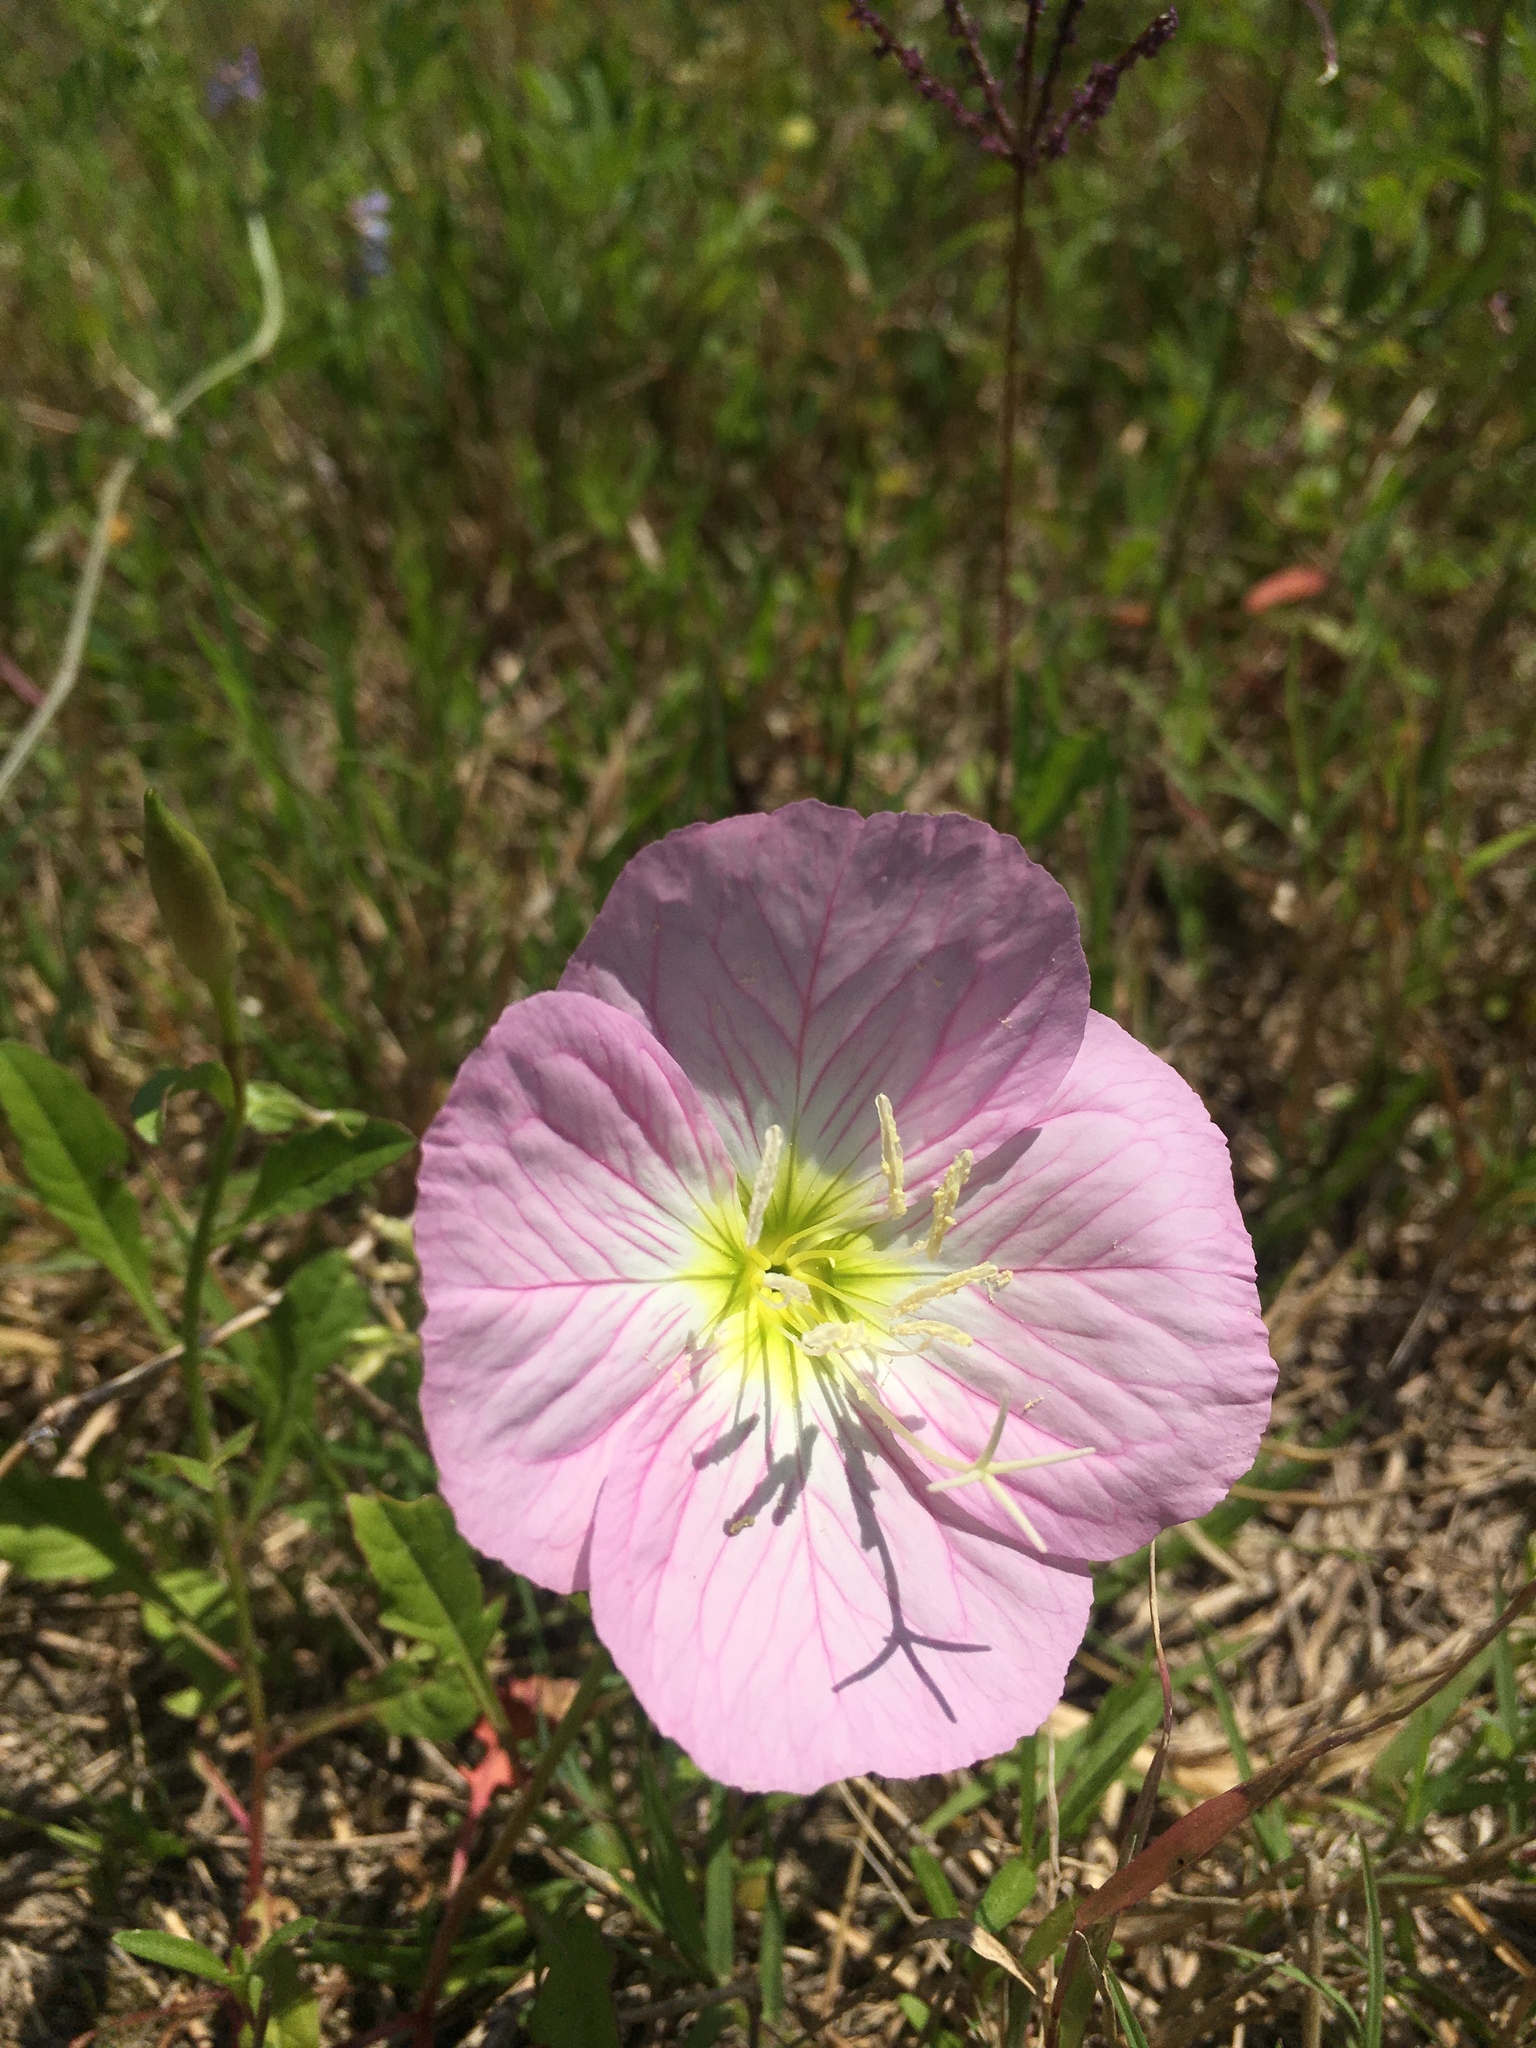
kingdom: Plantae
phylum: Tracheophyta
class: Magnoliopsida
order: Myrtales
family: Onagraceae
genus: Oenothera
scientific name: Oenothera speciosa
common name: White evening-primrose
